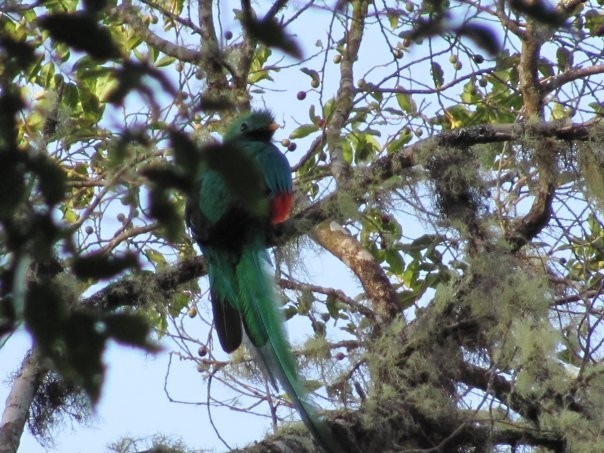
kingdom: Animalia
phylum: Chordata
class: Aves
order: Trogoniformes
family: Trogonidae
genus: Pharomachrus
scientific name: Pharomachrus mocinno
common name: Resplendent quetzal
